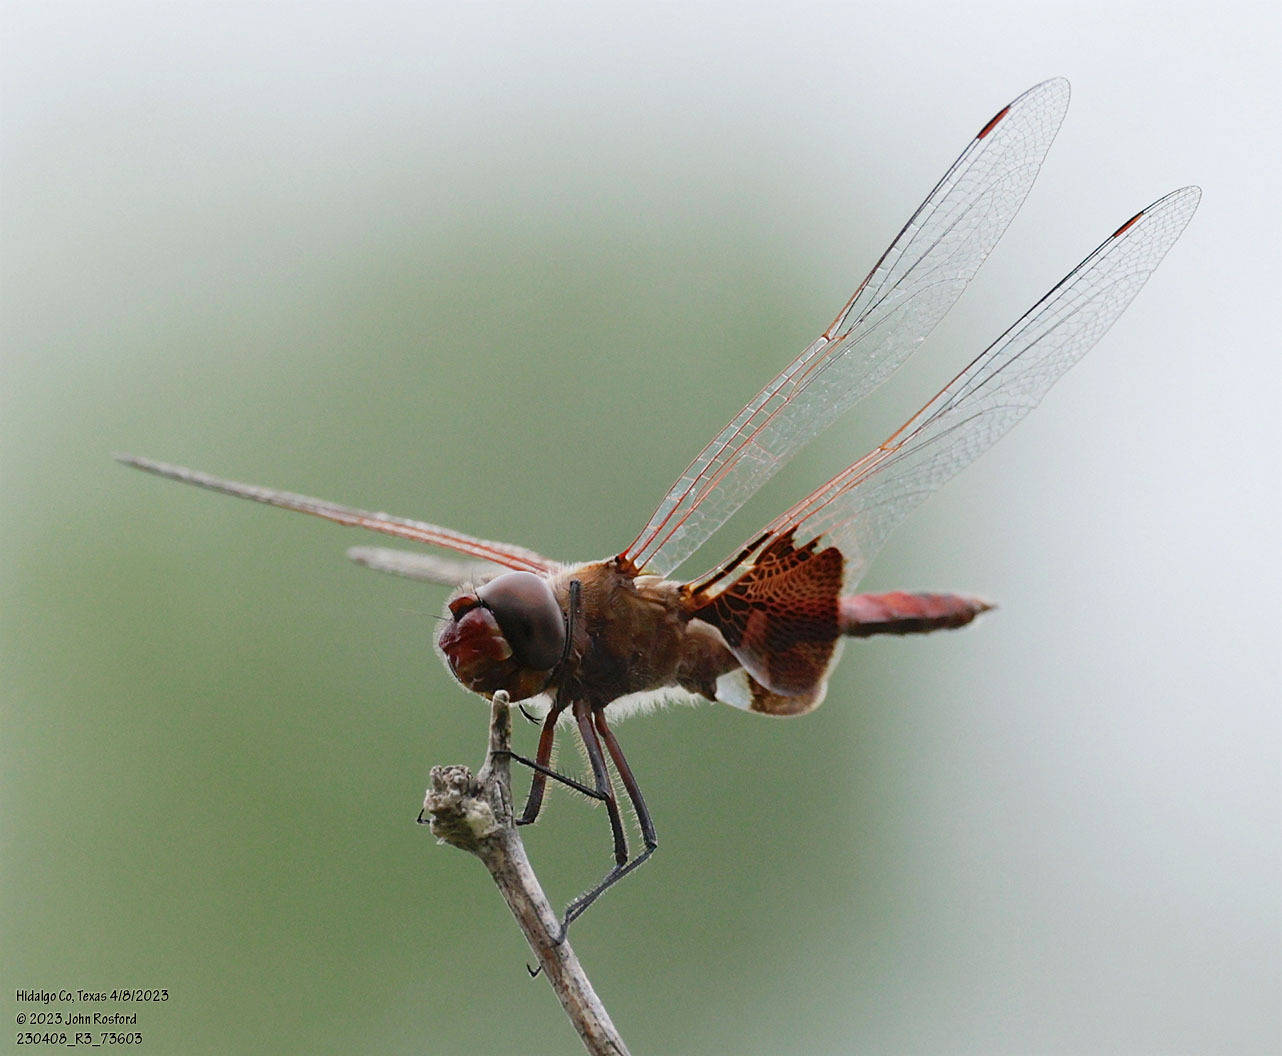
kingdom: Animalia
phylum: Arthropoda
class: Insecta
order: Odonata
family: Libellulidae
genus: Tramea
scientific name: Tramea onusta
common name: Red saddlebags
